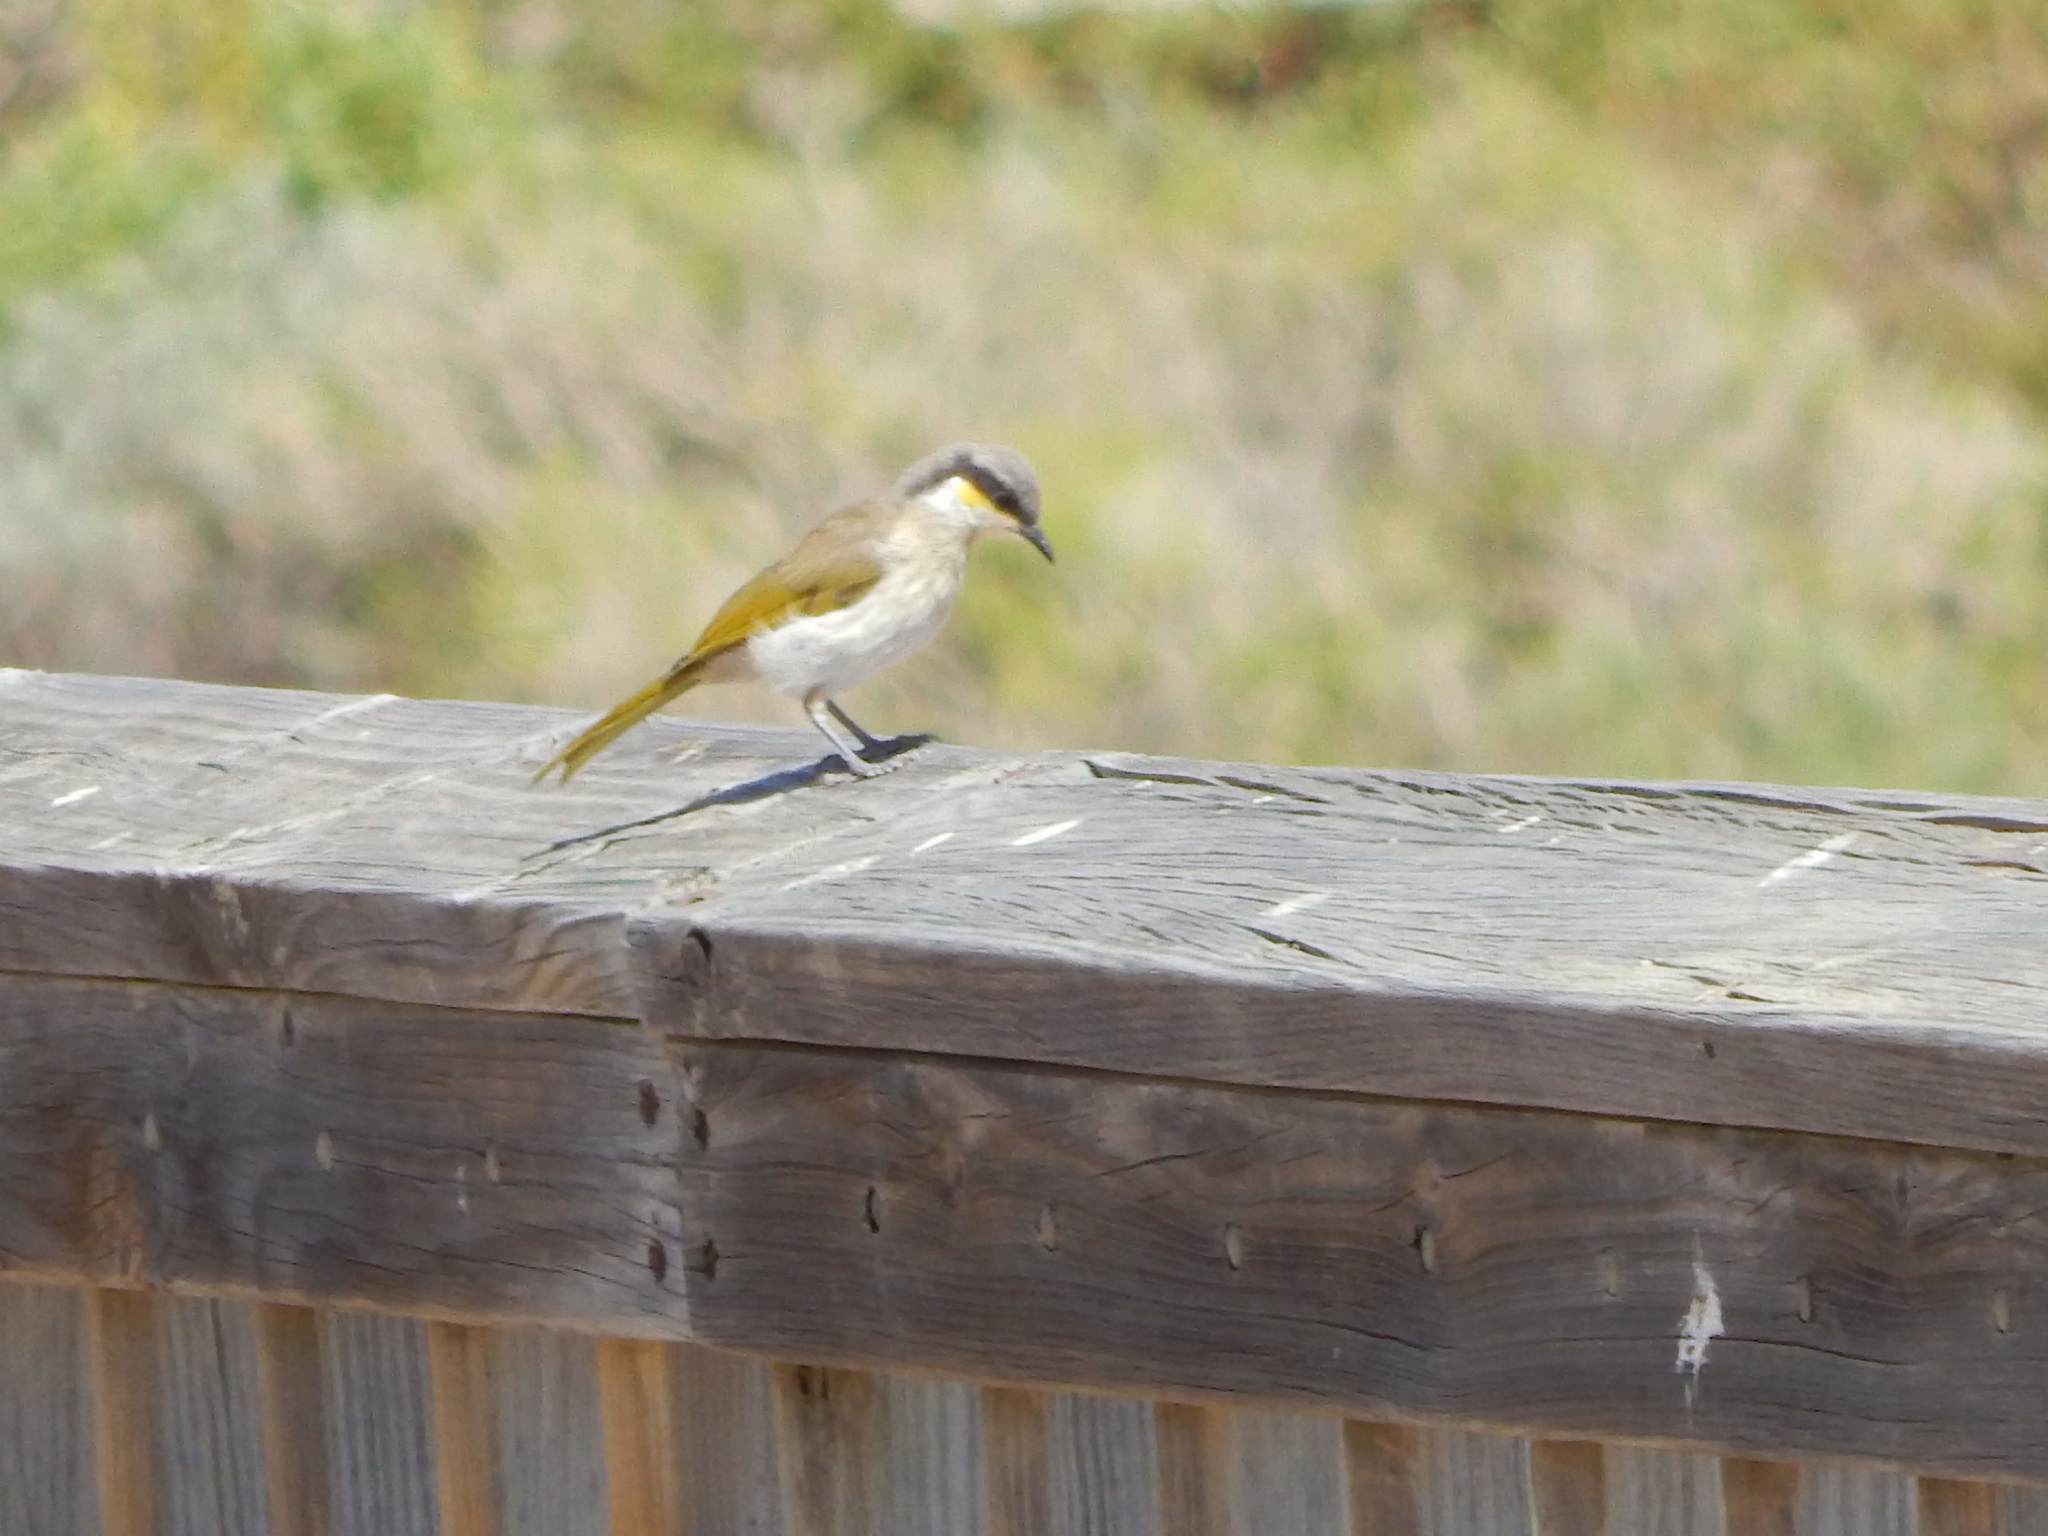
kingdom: Animalia
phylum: Chordata
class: Aves
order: Passeriformes
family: Meliphagidae
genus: Gavicalis
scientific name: Gavicalis virescens
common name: Singing honeyeater
